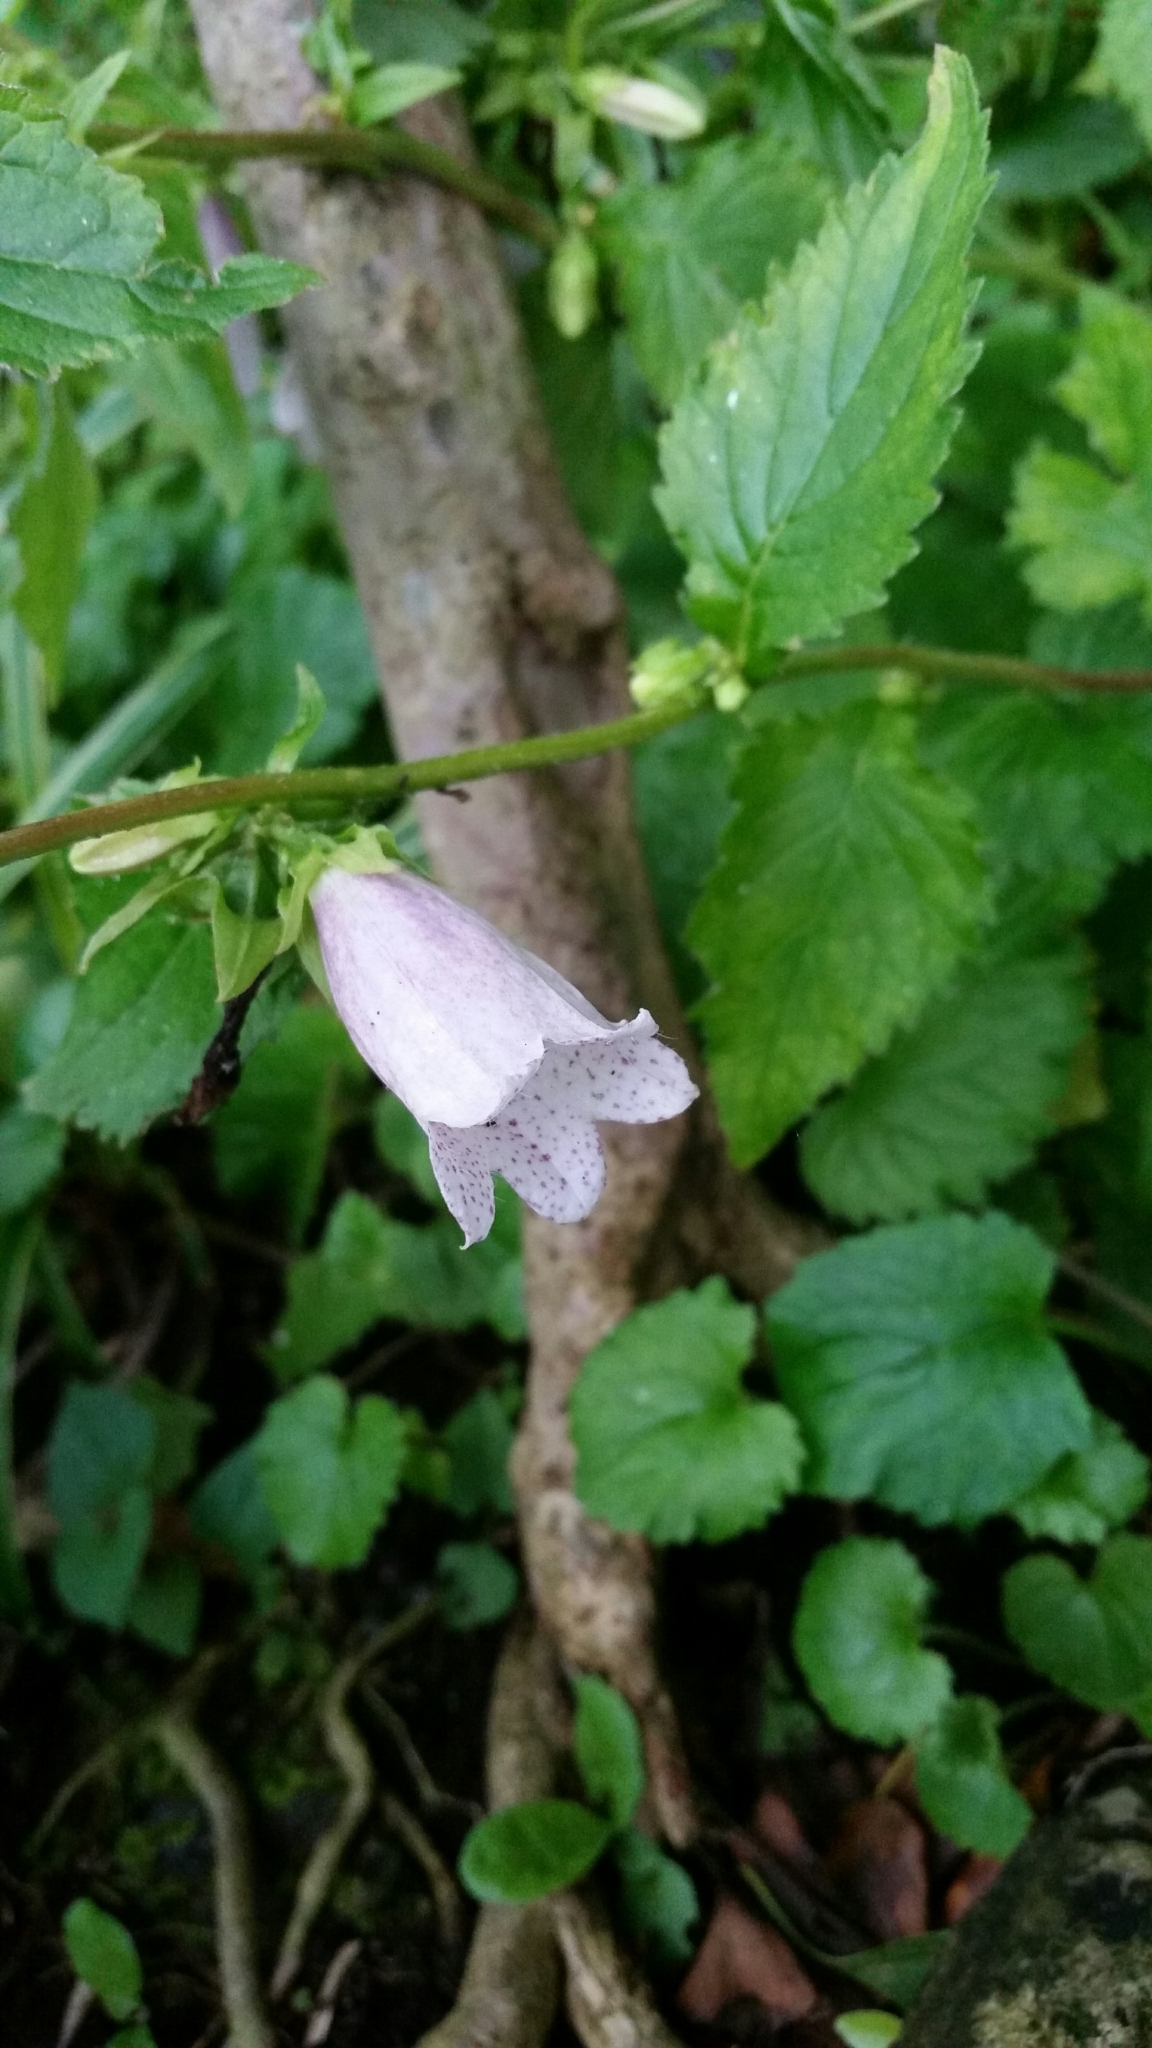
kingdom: Plantae
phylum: Tracheophyta
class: Magnoliopsida
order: Asterales
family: Campanulaceae
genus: Campanula
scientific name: Campanula punctata
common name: Spotted bellflower
